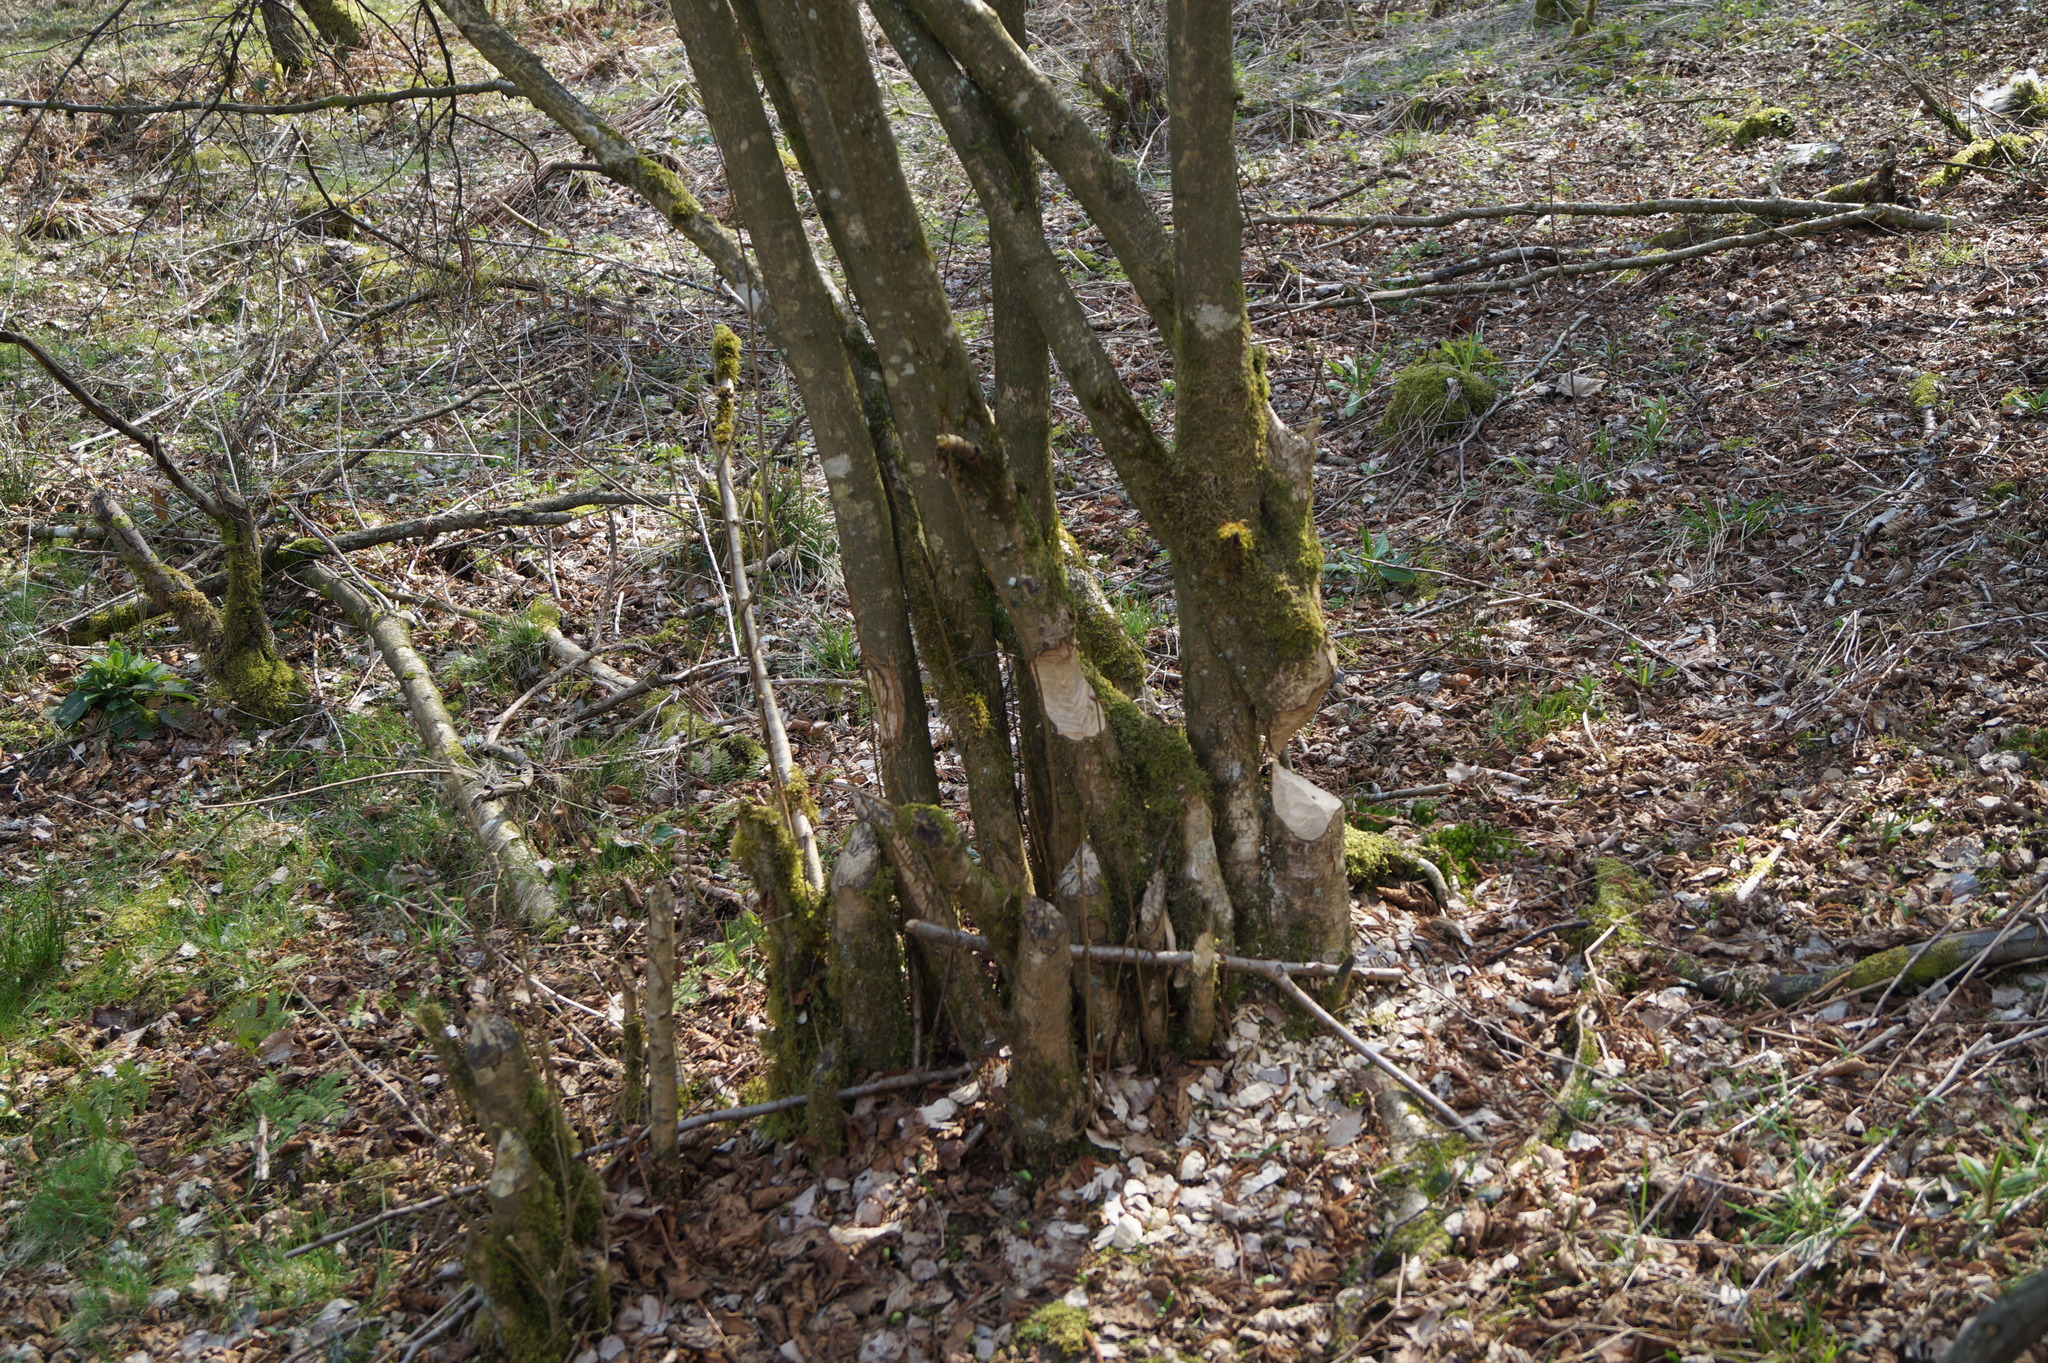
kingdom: Animalia
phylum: Chordata
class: Mammalia
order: Rodentia
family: Castoridae
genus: Castor
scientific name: Castor fiber
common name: Eurasian beaver
